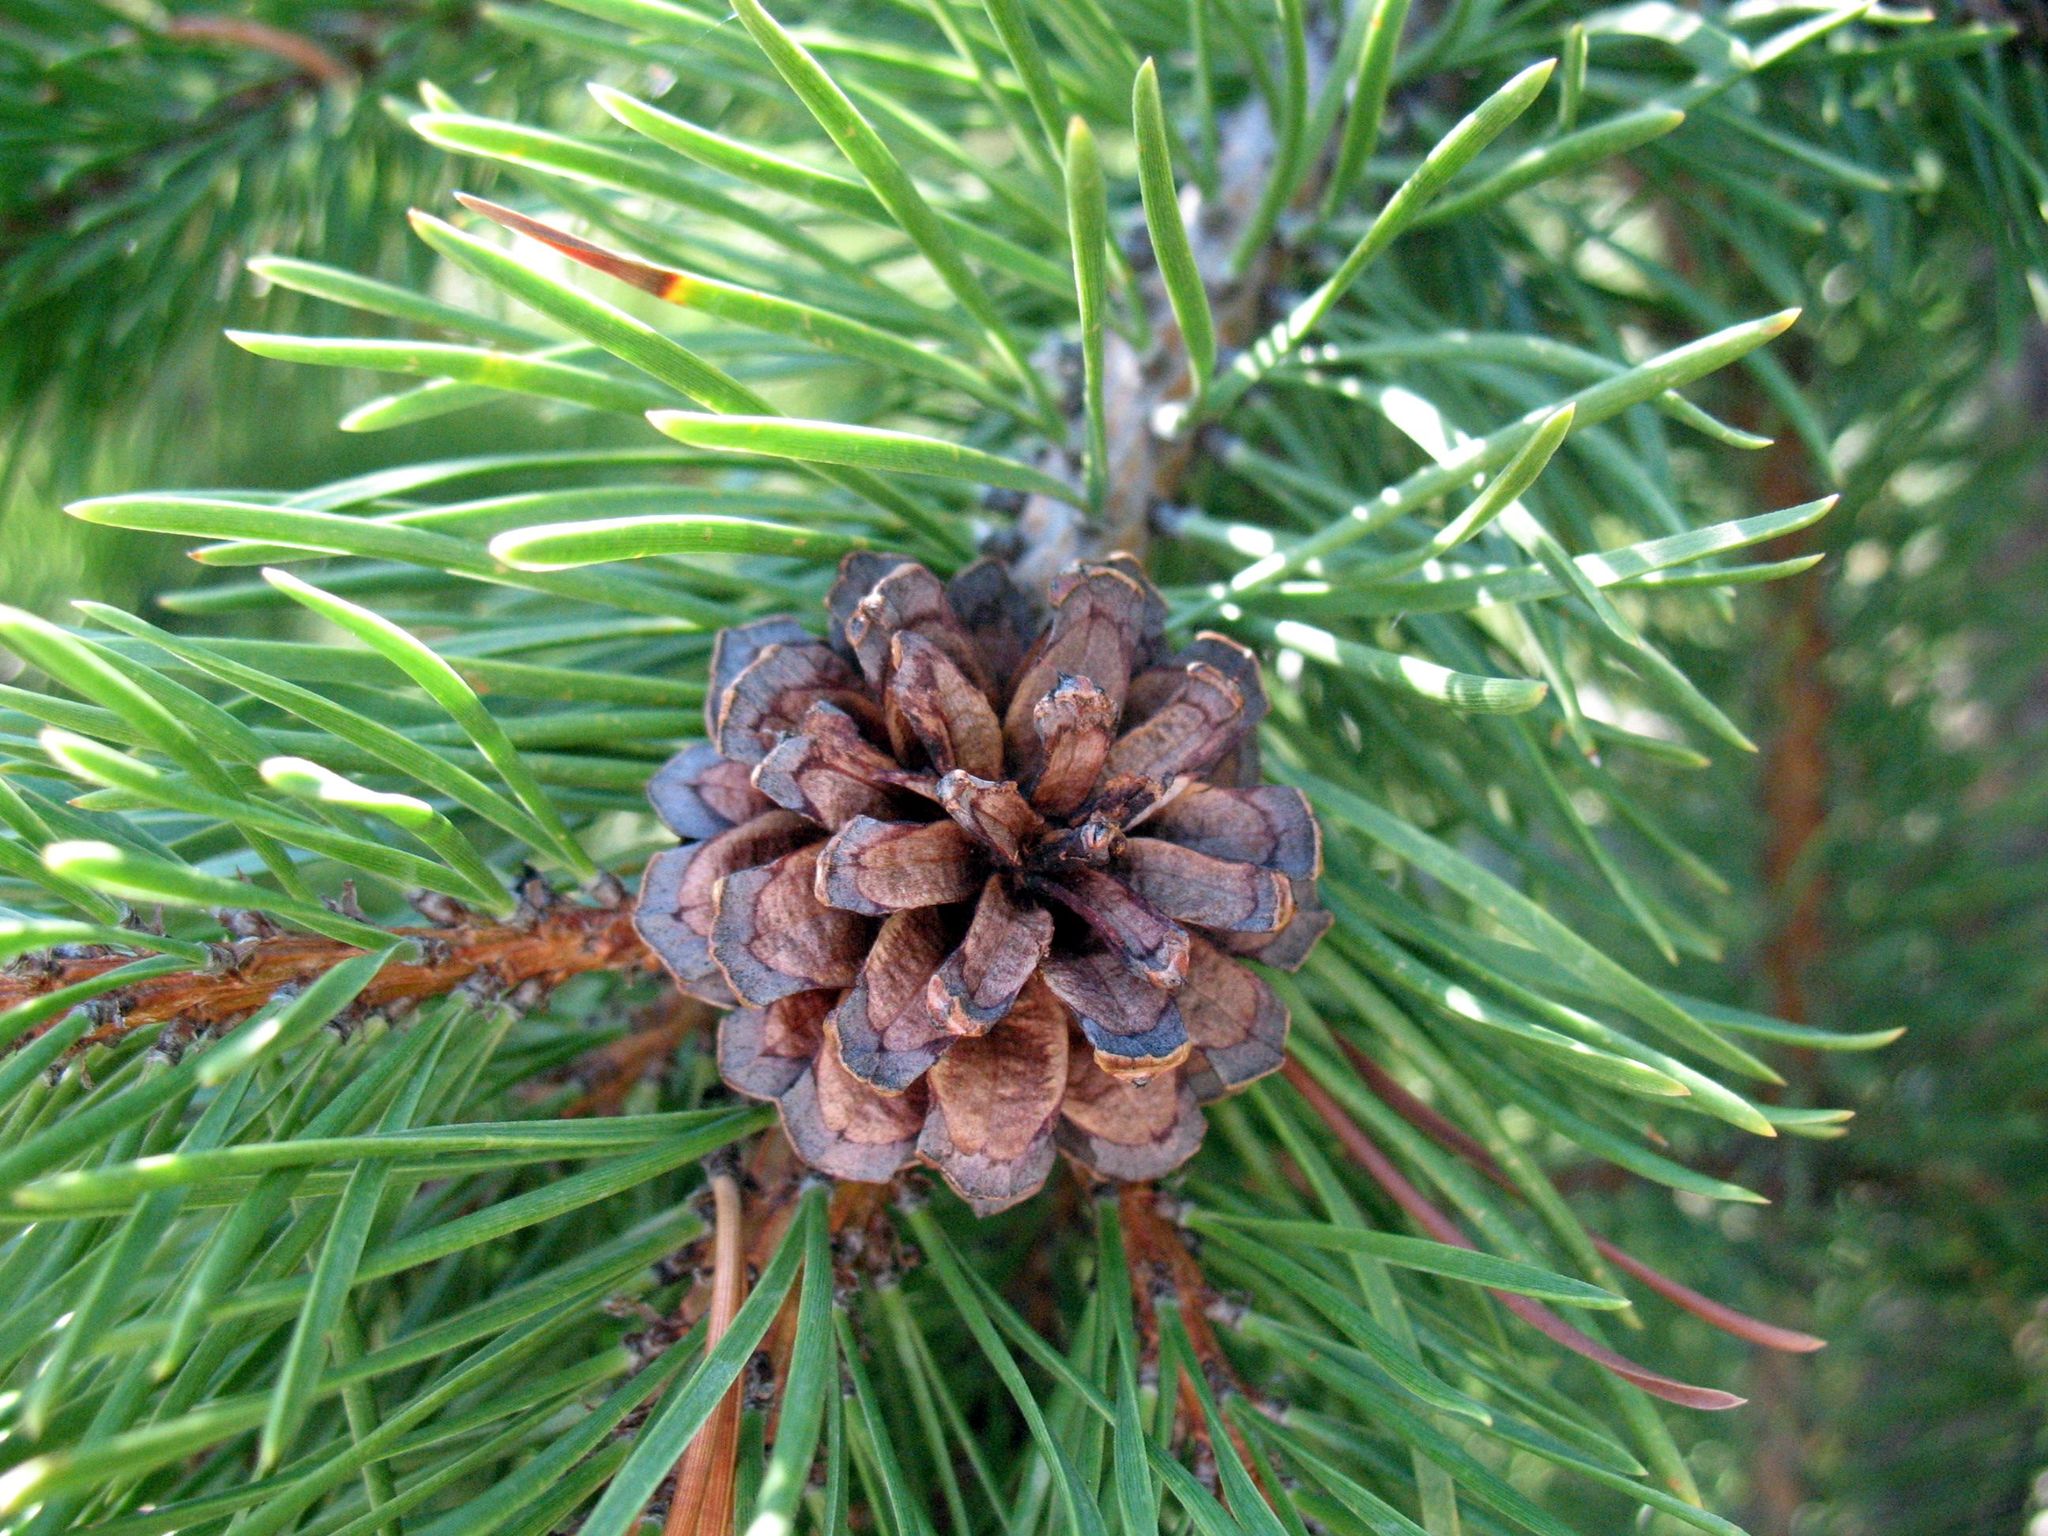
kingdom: Plantae
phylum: Tracheophyta
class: Pinopsida
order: Pinales
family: Pinaceae
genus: Pinus
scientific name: Pinus contorta
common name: Lodgepole pine
